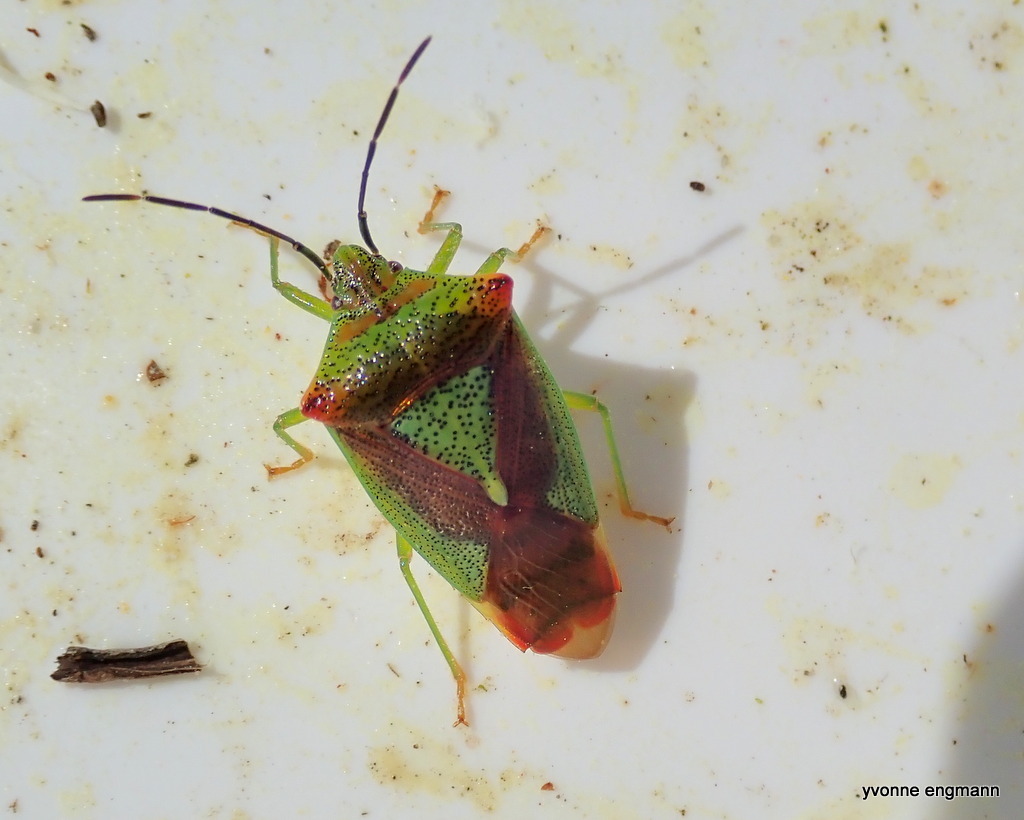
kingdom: Animalia
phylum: Arthropoda
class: Insecta
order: Hemiptera
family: Acanthosomatidae
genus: Acanthosoma
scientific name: Acanthosoma haemorrhoidale
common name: Hawthorn shieldbug
